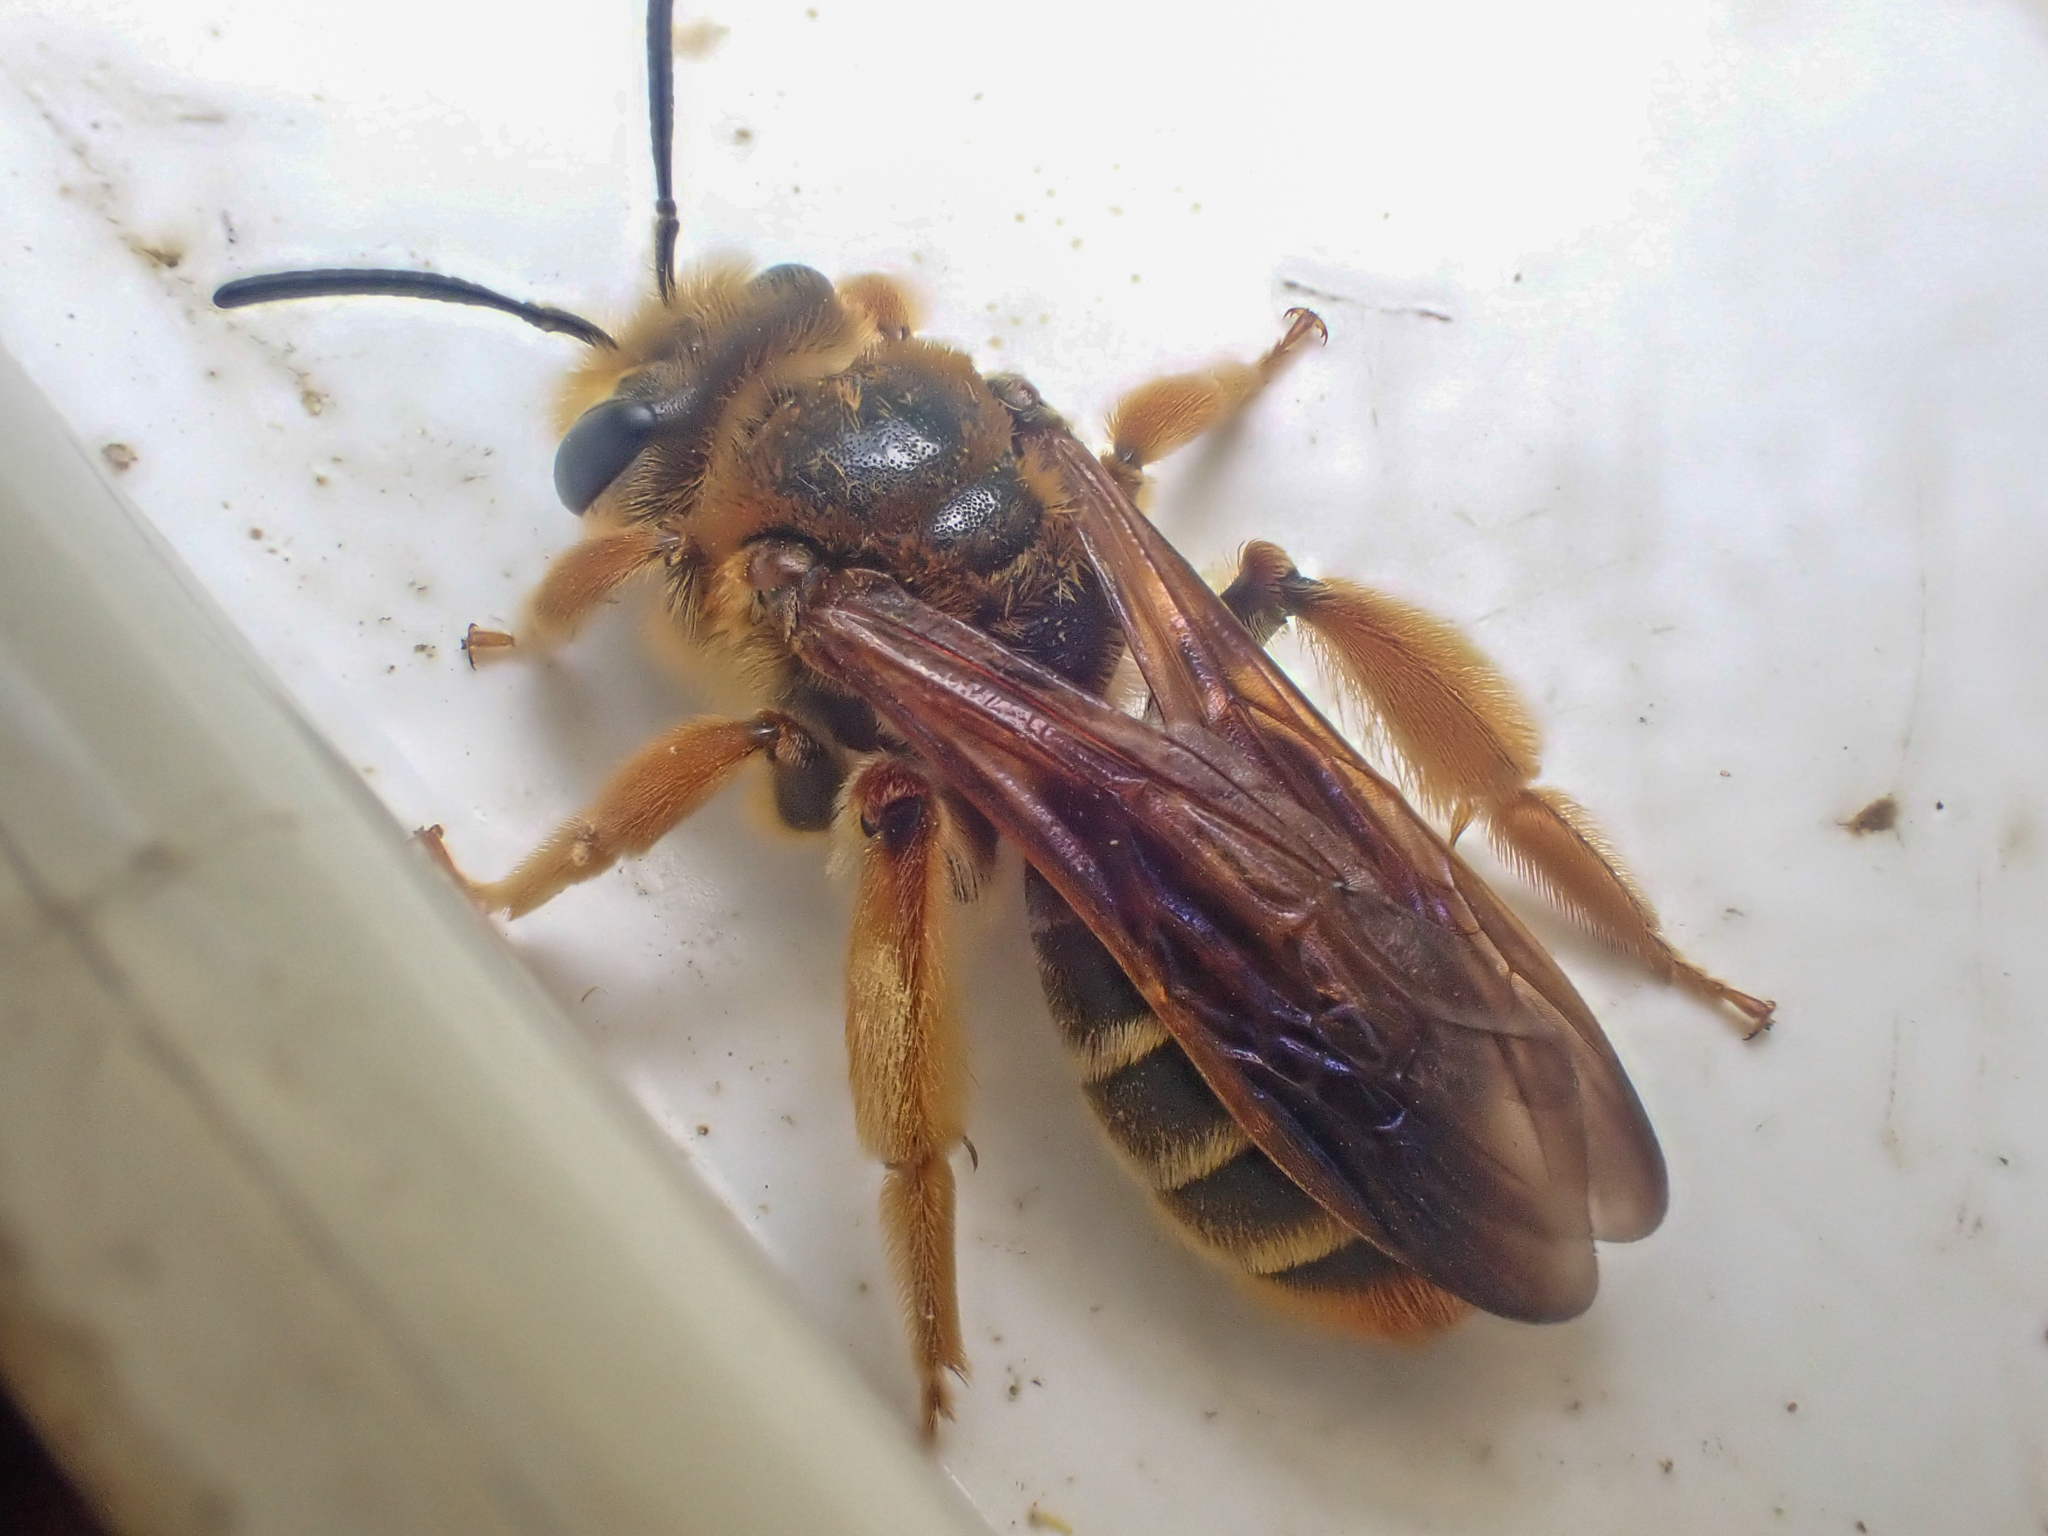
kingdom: Animalia
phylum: Arthropoda
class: Insecta
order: Hymenoptera
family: Andrenidae
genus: Andrena
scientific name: Andrena prunorum
